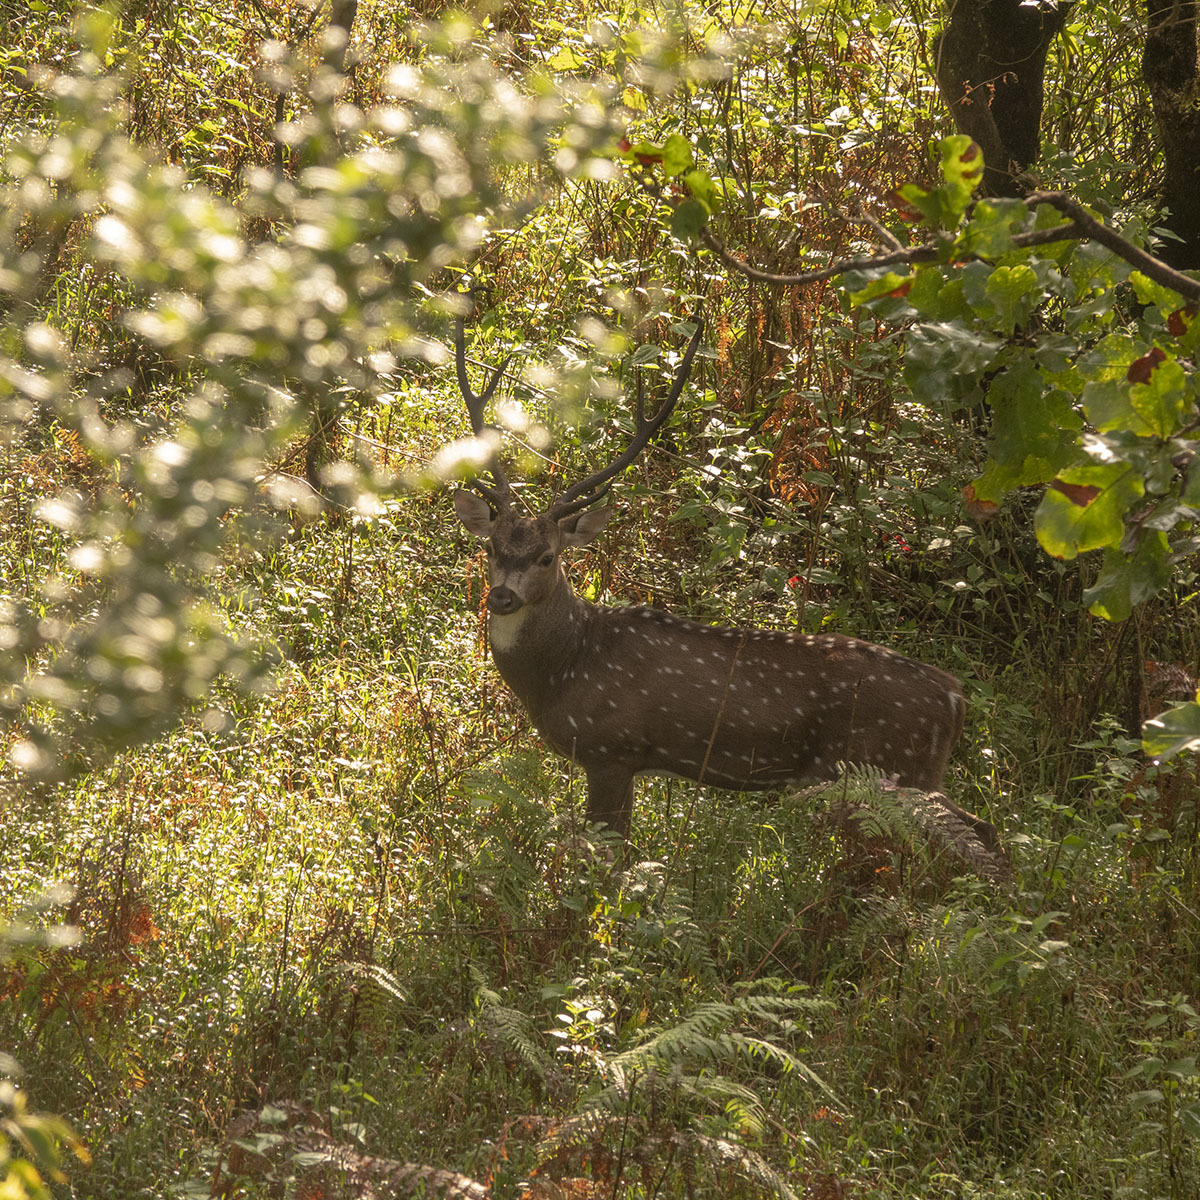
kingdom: Animalia
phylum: Chordata
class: Mammalia
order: Artiodactyla
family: Cervidae
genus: Axis
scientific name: Axis axis
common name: Chital
